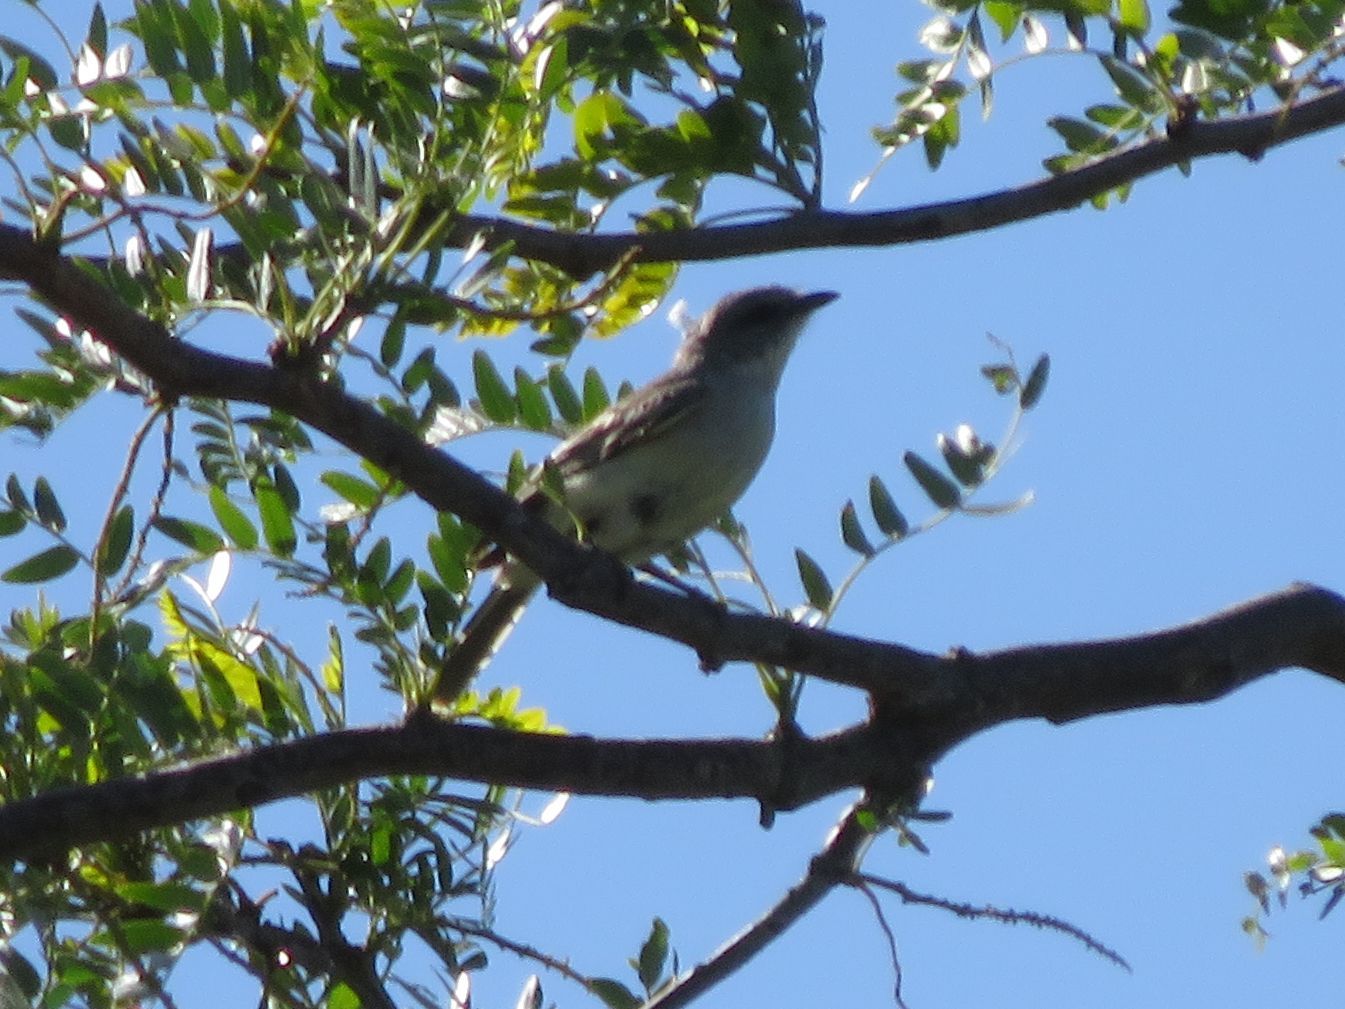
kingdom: Animalia
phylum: Chordata
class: Aves
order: Passeriformes
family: Tyrannidae
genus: Suiriri
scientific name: Suiriri suiriri
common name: Suiriri flycatcher
